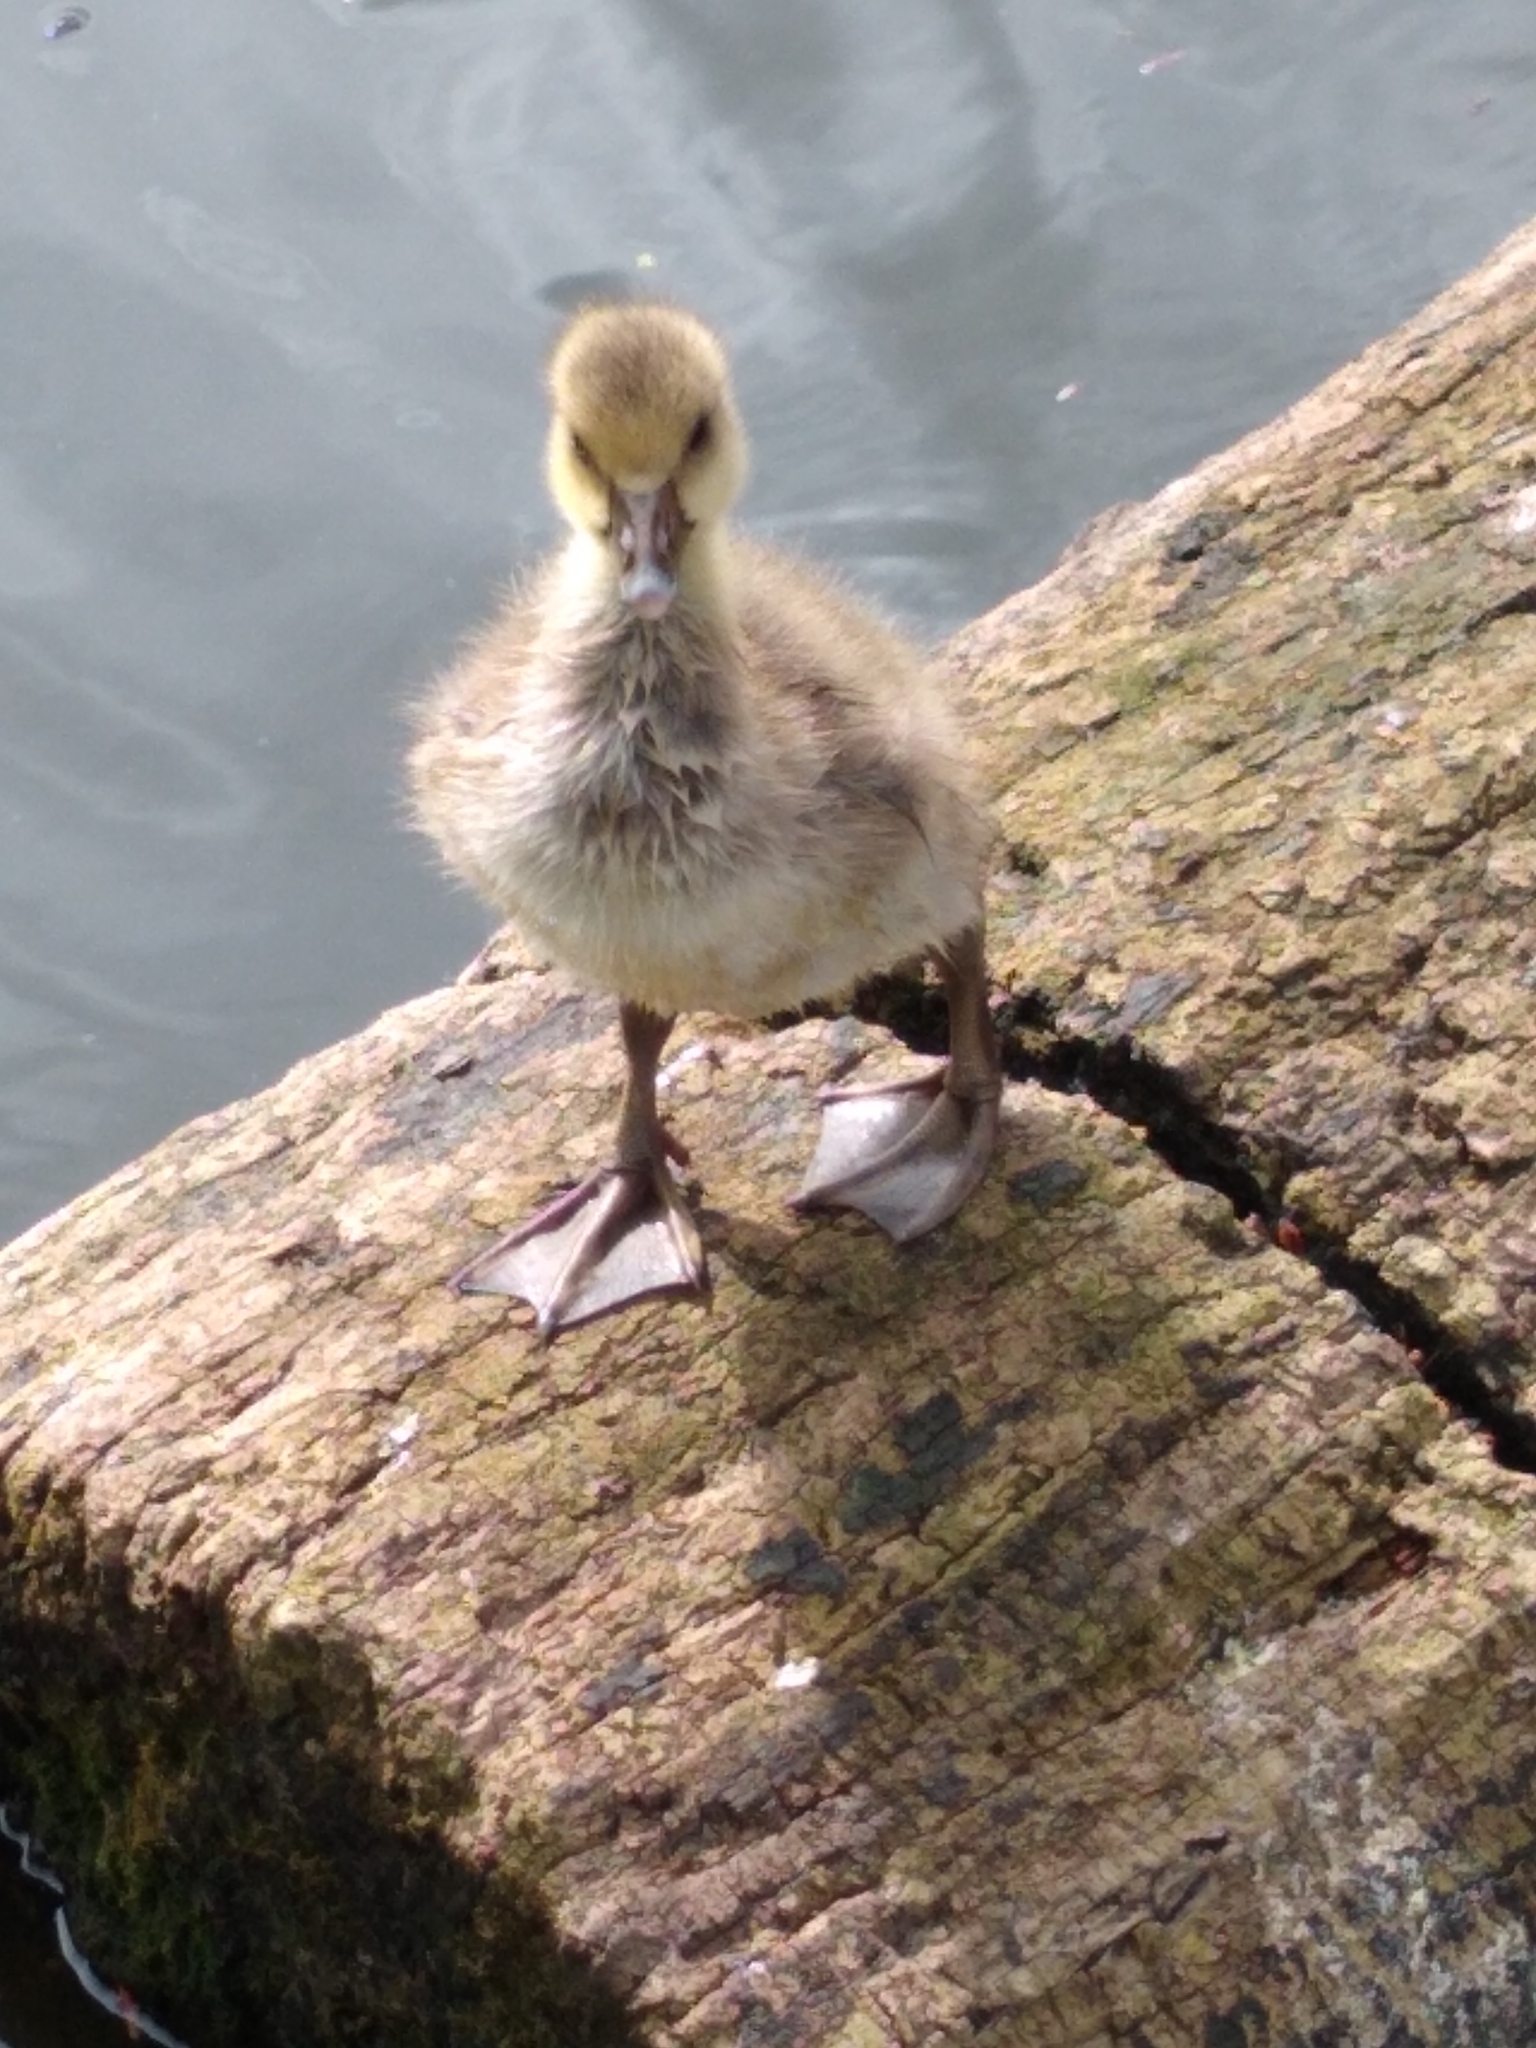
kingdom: Animalia
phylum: Chordata
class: Aves
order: Anseriformes
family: Anatidae
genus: Anser
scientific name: Anser anser
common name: Greylag goose
